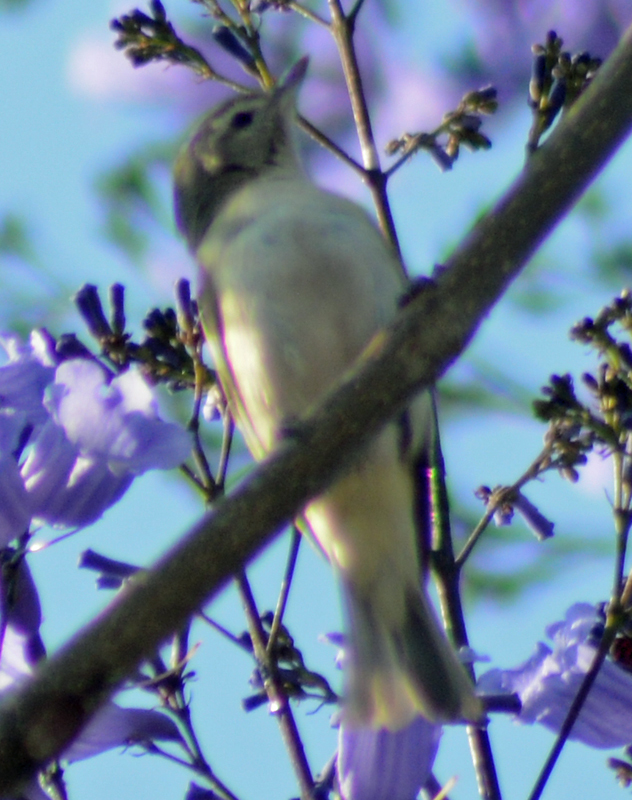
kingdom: Animalia
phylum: Chordata
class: Aves
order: Passeriformes
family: Vireonidae
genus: Vireo
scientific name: Vireo gilvus
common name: Warbling vireo
